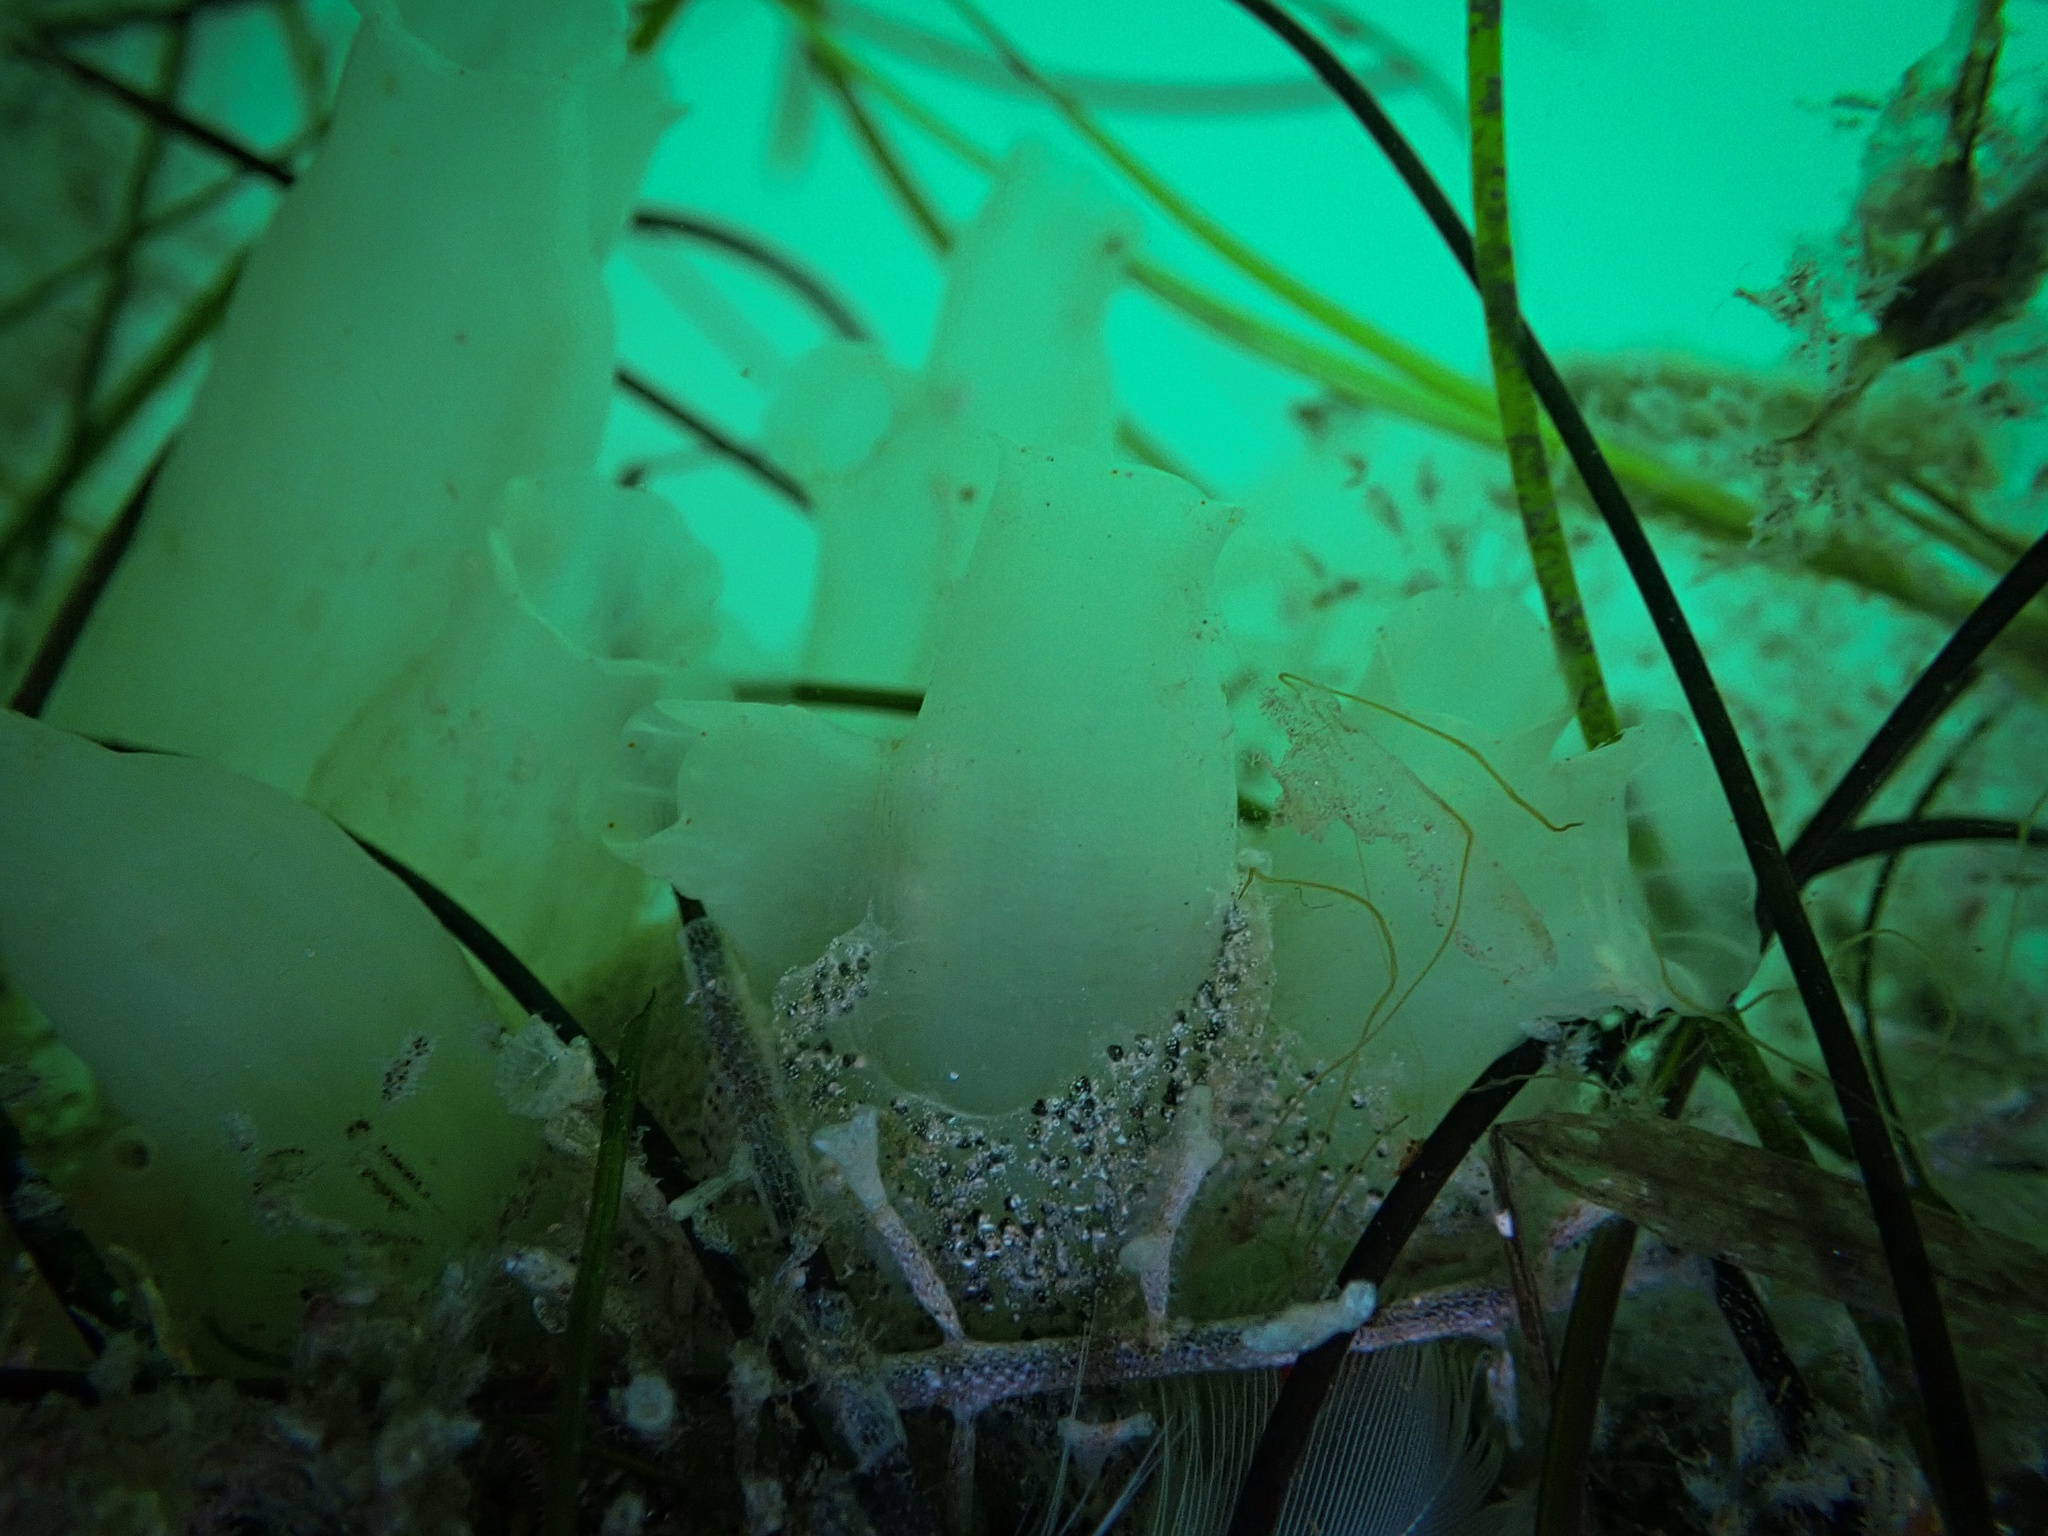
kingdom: Animalia
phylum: Chordata
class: Ascidiacea
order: Phlebobranchia
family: Cionidae
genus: Ciona
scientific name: Ciona robusta
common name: Tunicate
